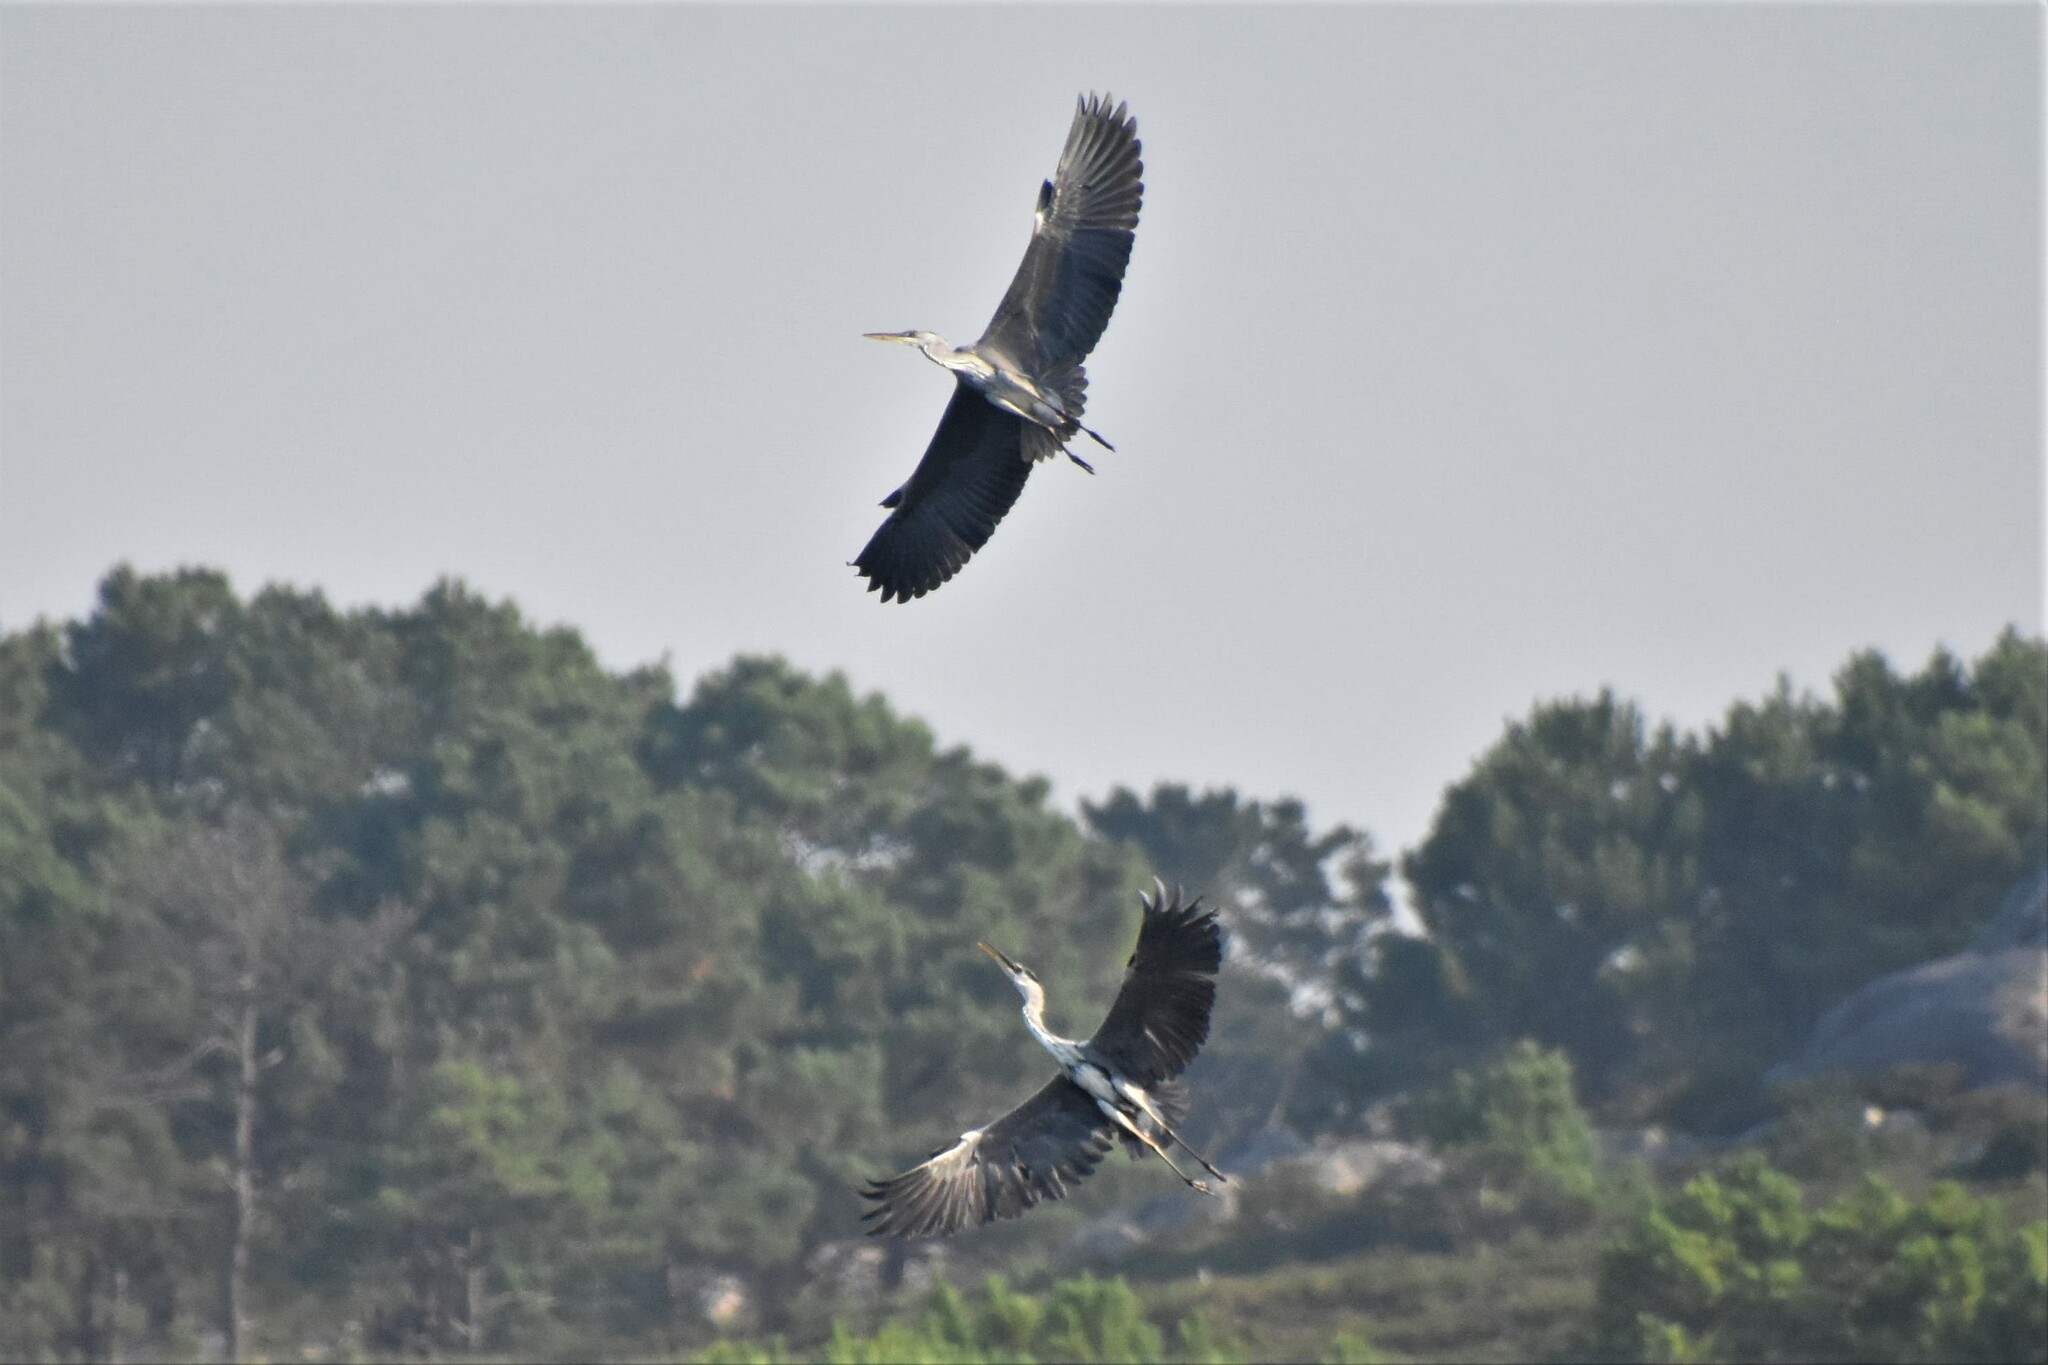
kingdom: Animalia
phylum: Chordata
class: Aves
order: Pelecaniformes
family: Ardeidae
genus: Ardea
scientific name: Ardea cinerea
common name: Grey heron
